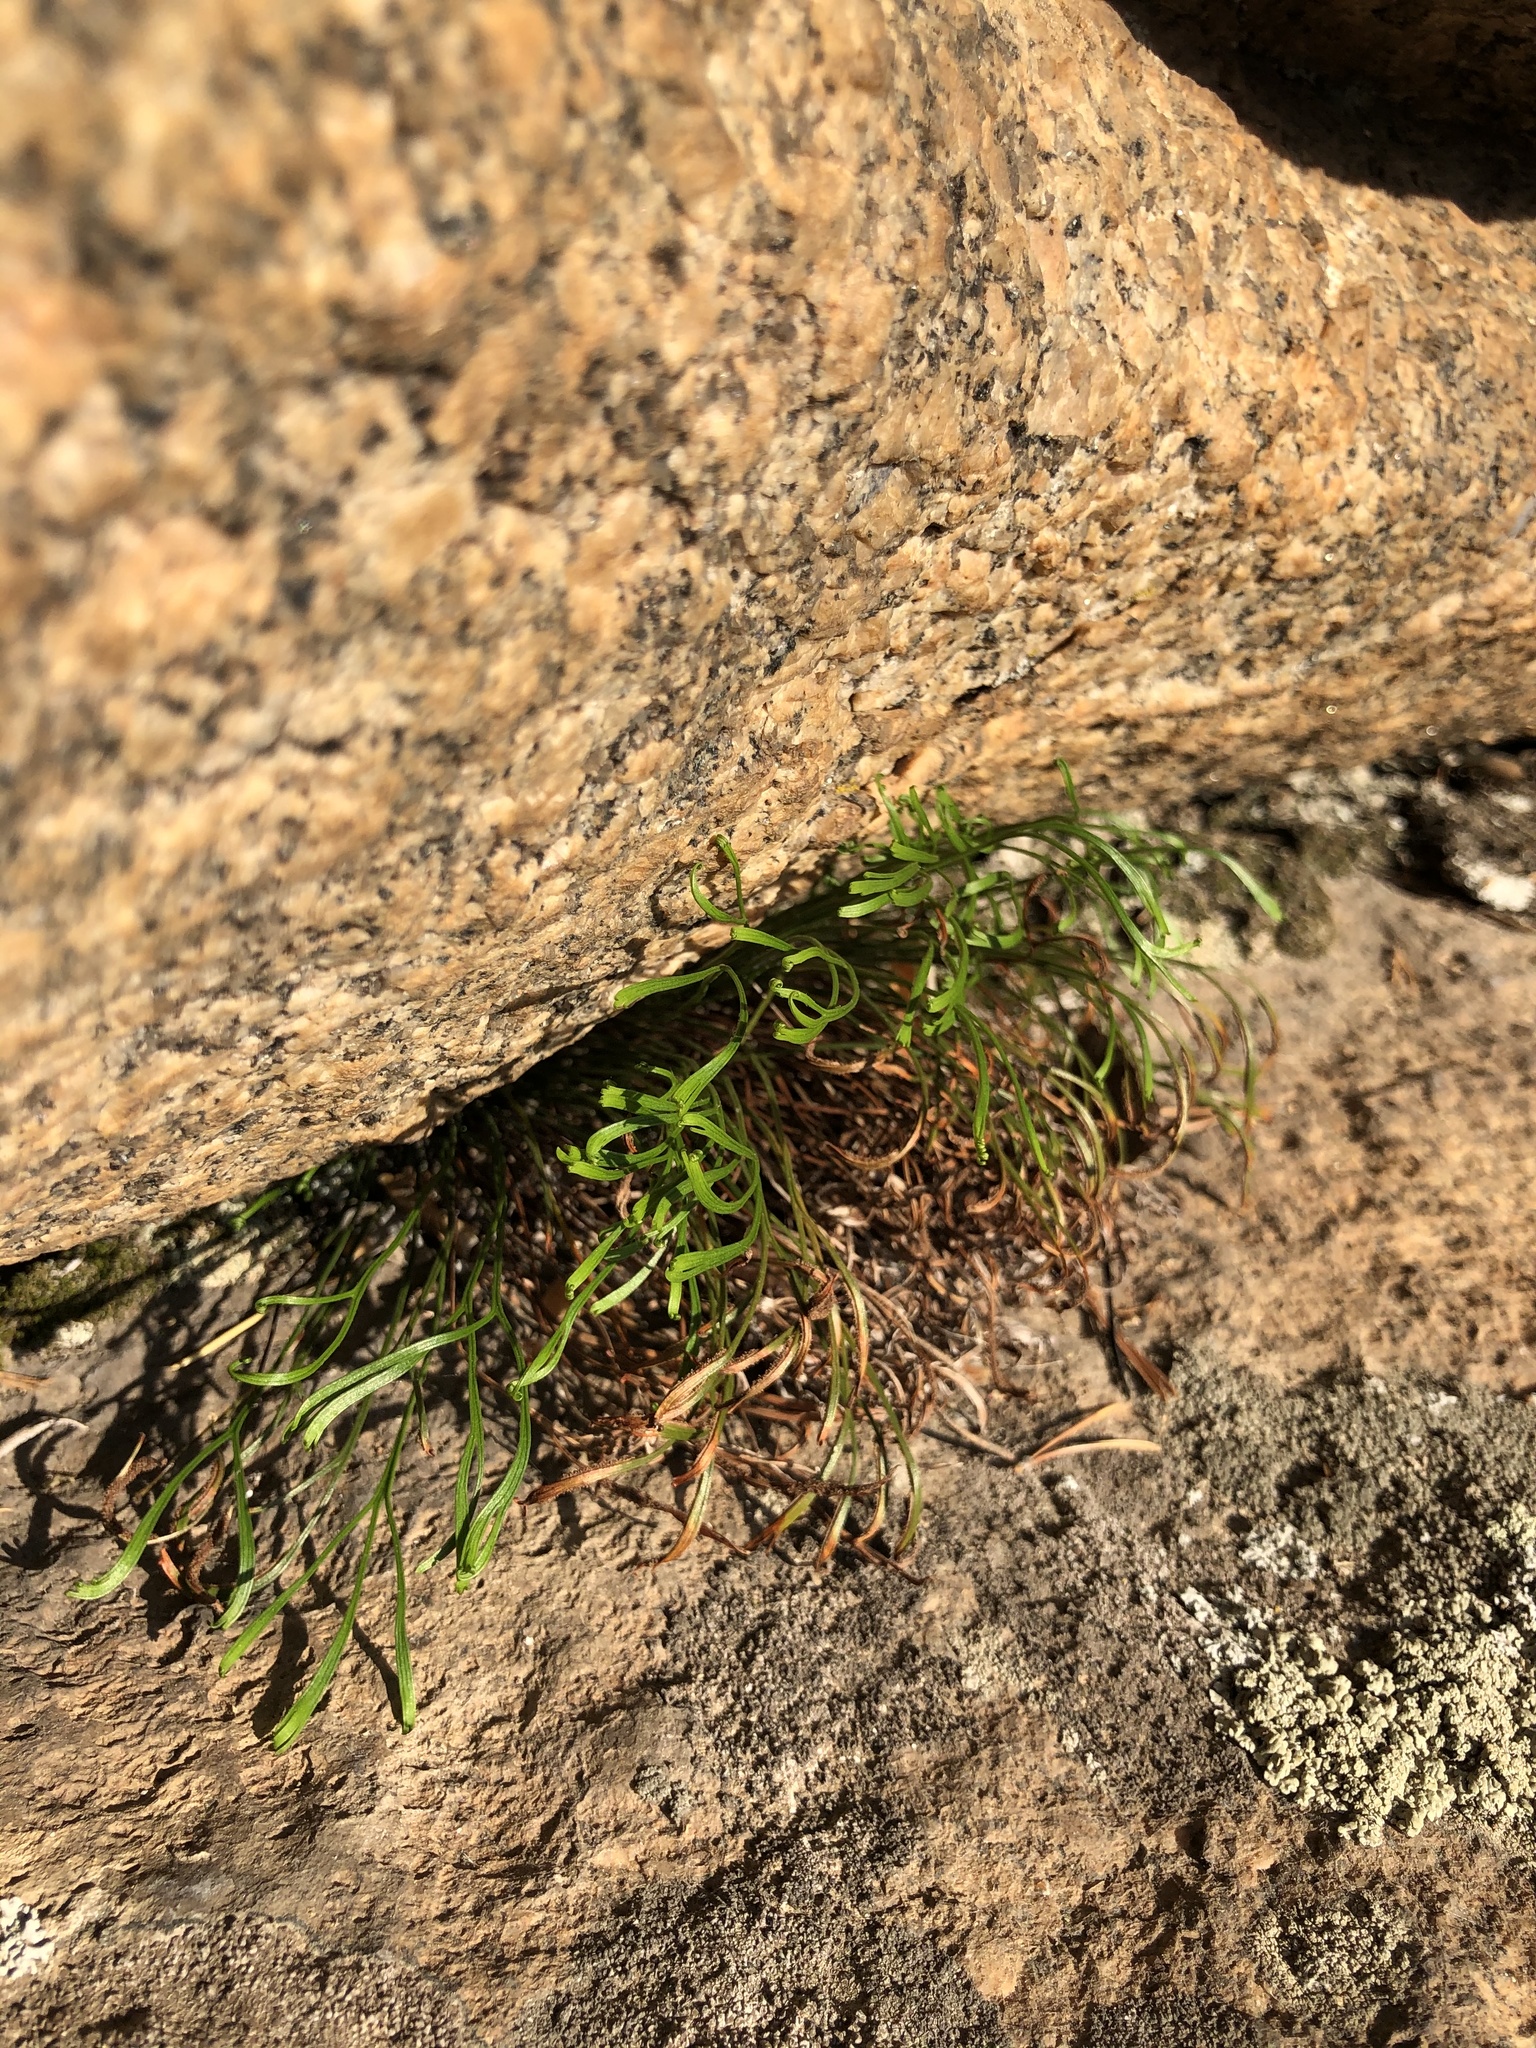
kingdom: Plantae
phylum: Tracheophyta
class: Polypodiopsida
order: Polypodiales
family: Aspleniaceae
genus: Asplenium
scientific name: Asplenium septentrionale
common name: Forked spleenwort
